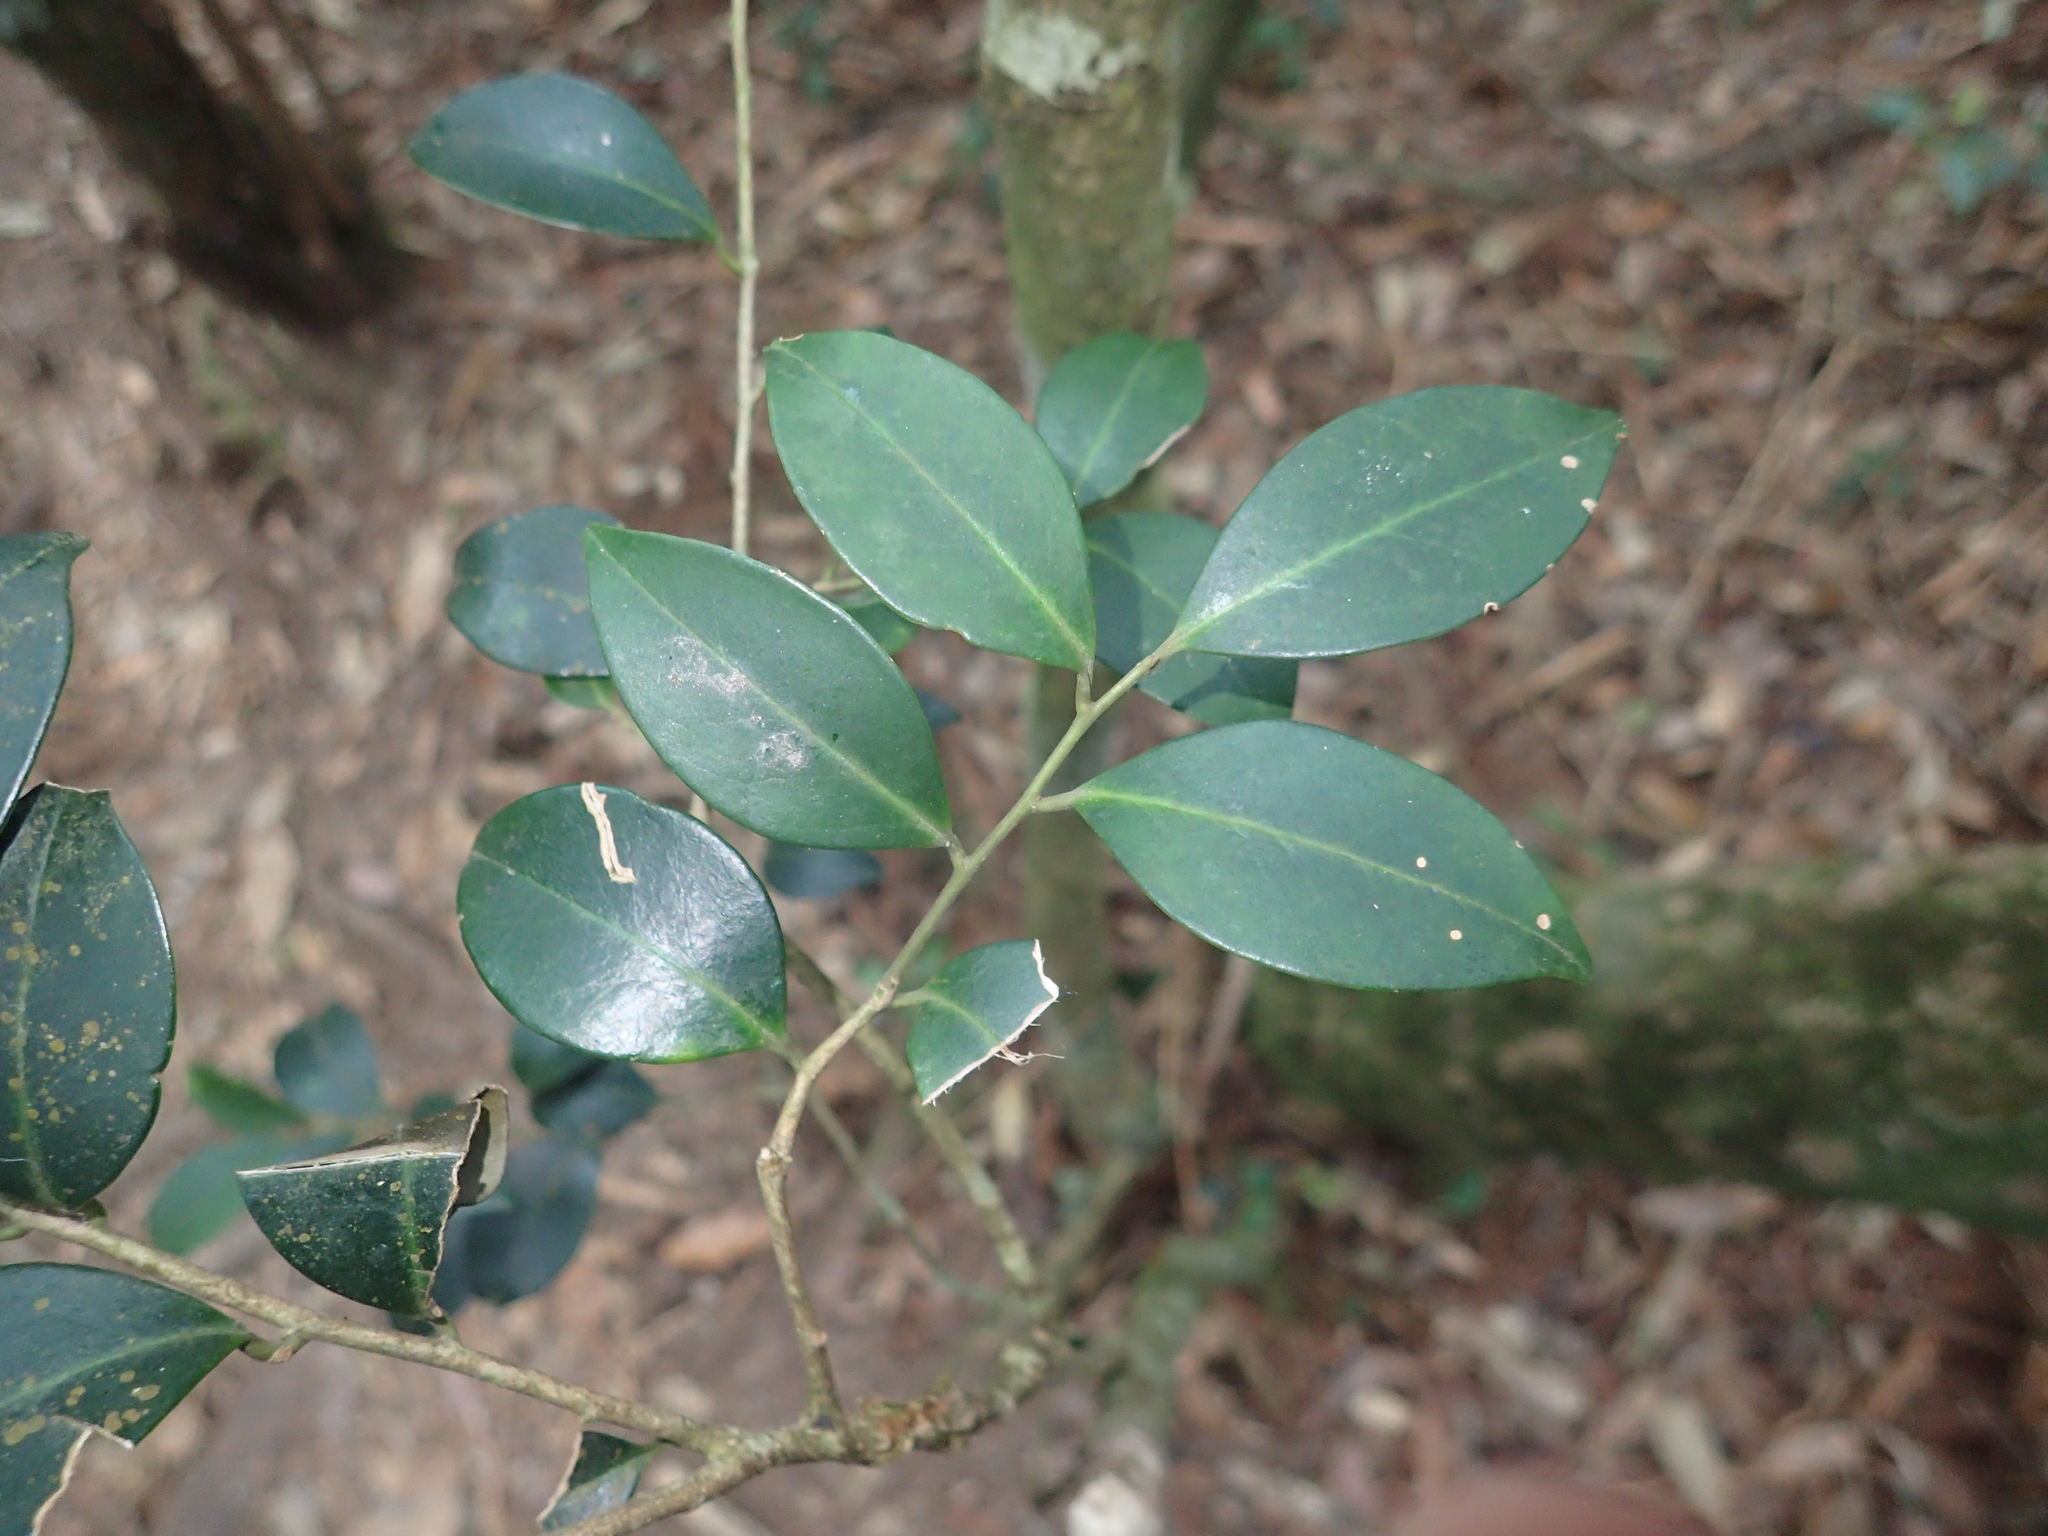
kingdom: Plantae
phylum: Tracheophyta
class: Magnoliopsida
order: Aquifoliales
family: Aquifoliaceae
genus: Ilex
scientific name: Ilex goshiensis
